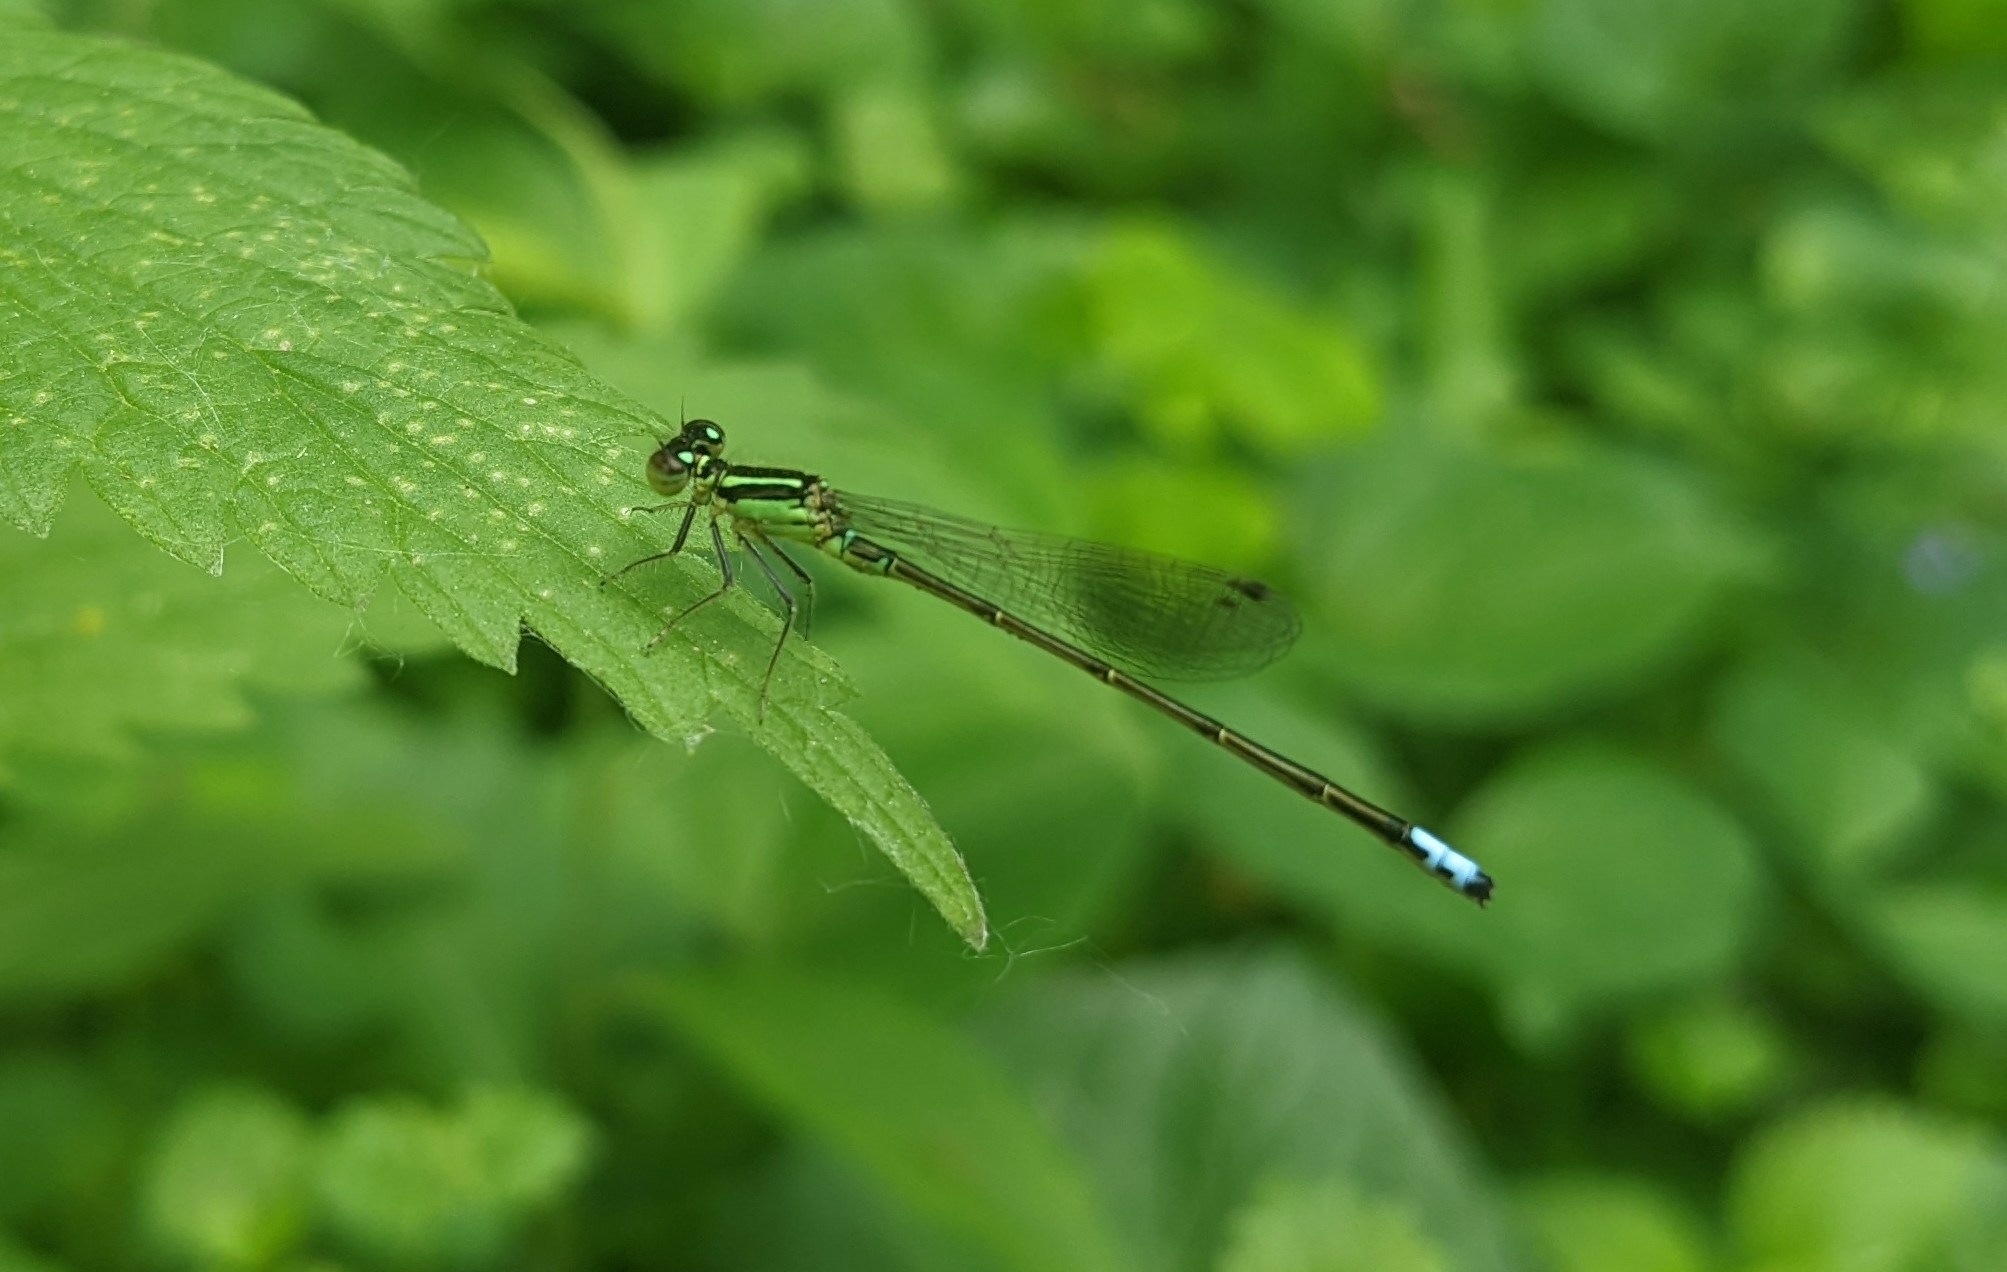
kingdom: Animalia
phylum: Arthropoda
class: Insecta
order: Odonata
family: Coenagrionidae
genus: Ischnura
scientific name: Ischnura verticalis
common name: Eastern forktail
